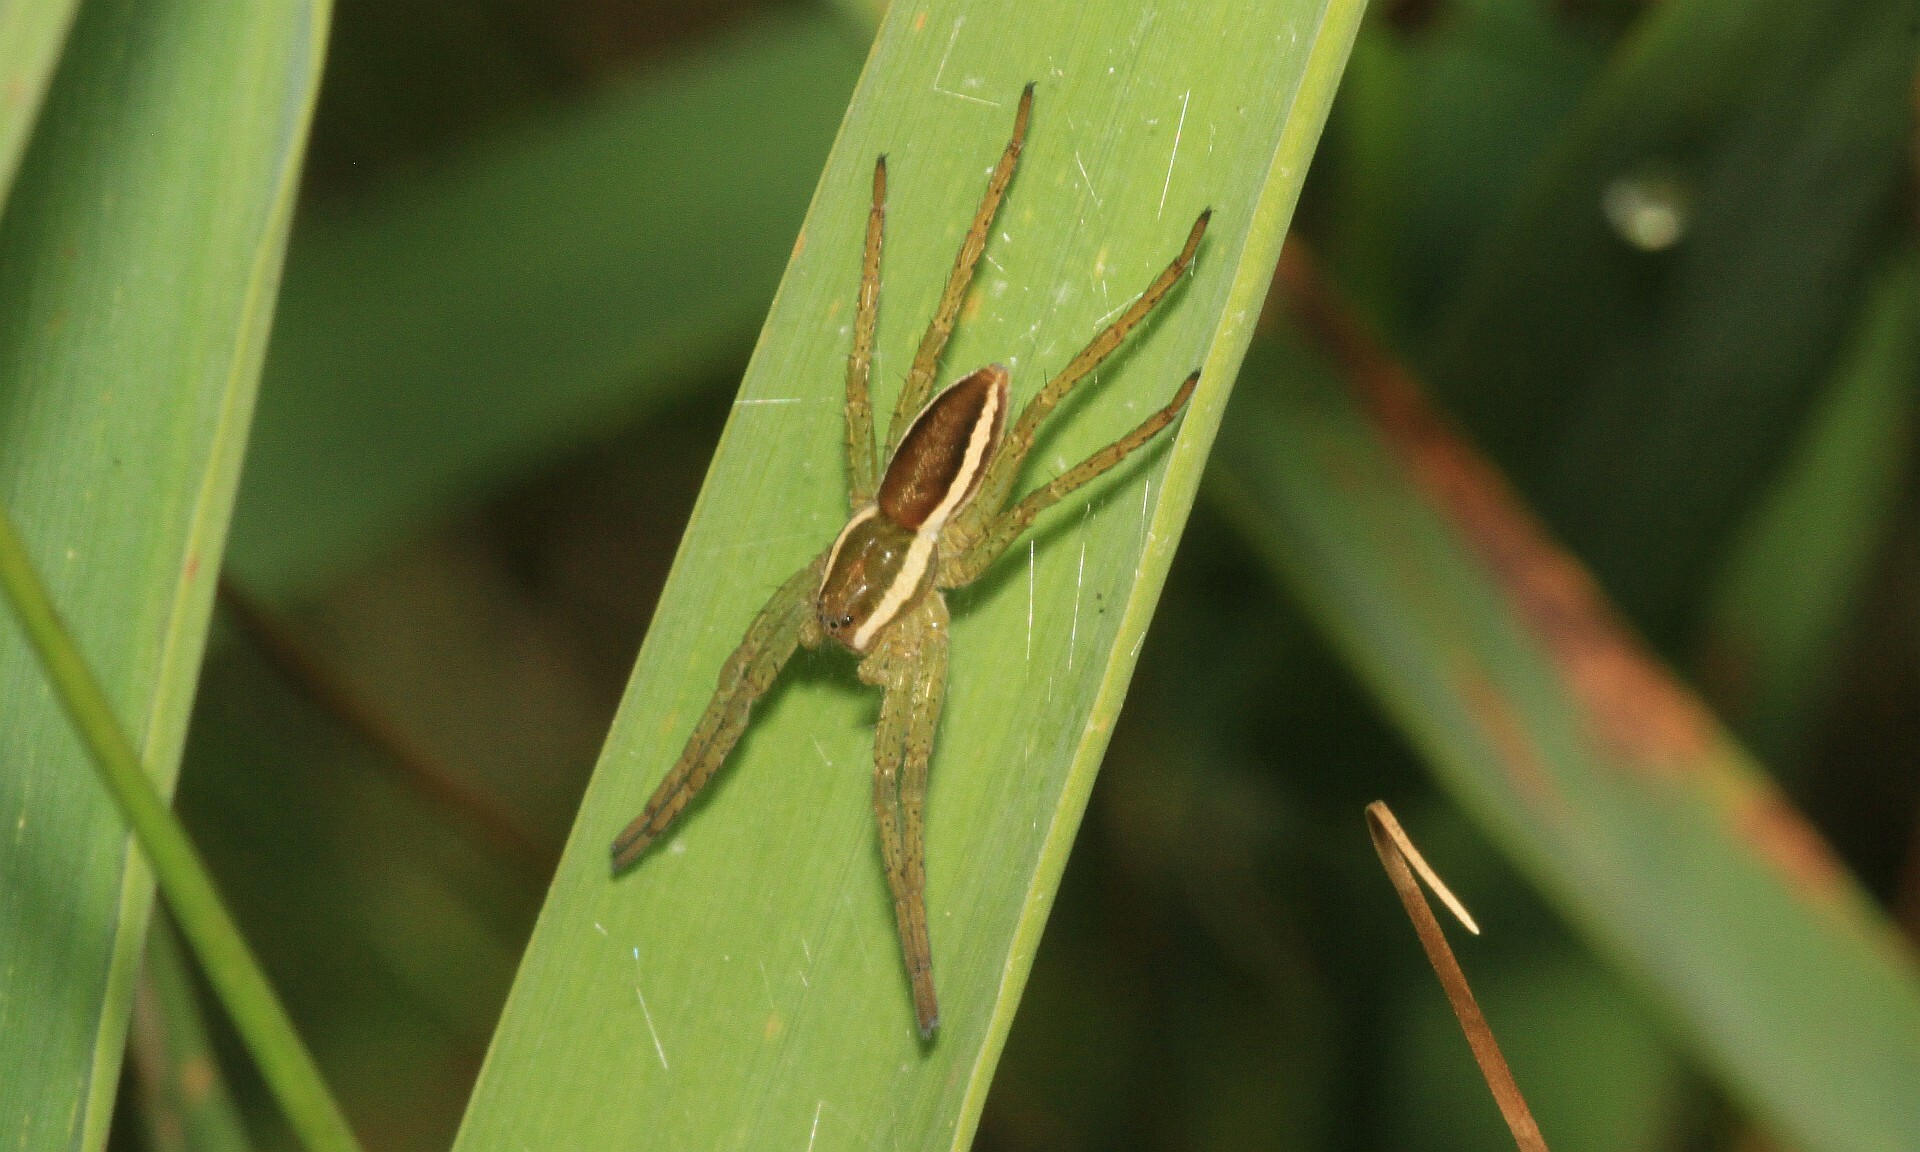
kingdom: Animalia
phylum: Arthropoda
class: Arachnida
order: Araneae
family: Pisauridae
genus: Dolomedes
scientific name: Dolomedes
